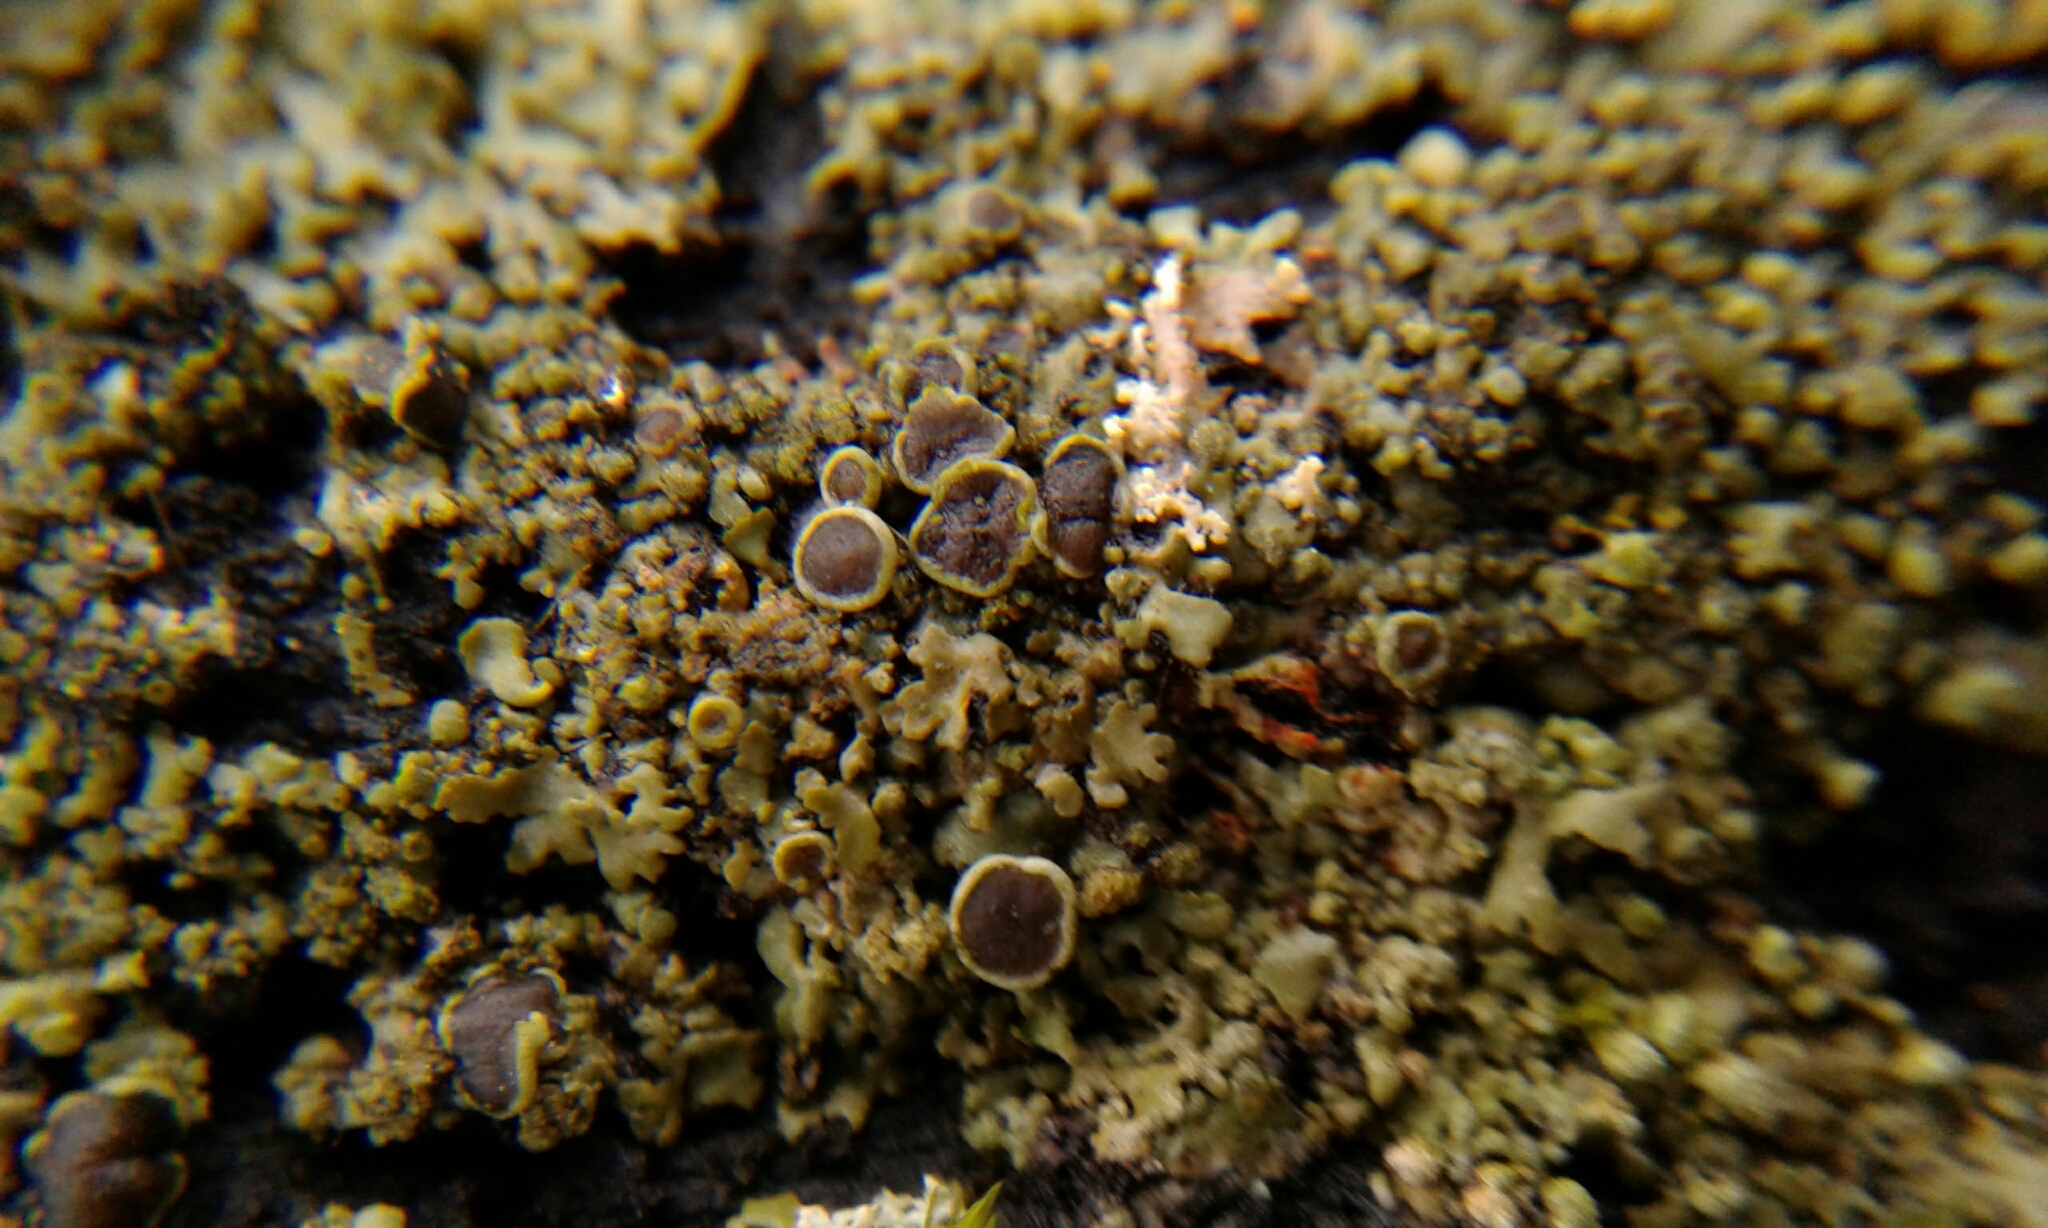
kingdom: Fungi
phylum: Ascomycota
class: Lecanoromycetes
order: Caliciales
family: Physciaceae
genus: Phaeophyscia
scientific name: Phaeophyscia rubropulchra
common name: Orange-cored shadow lichen
